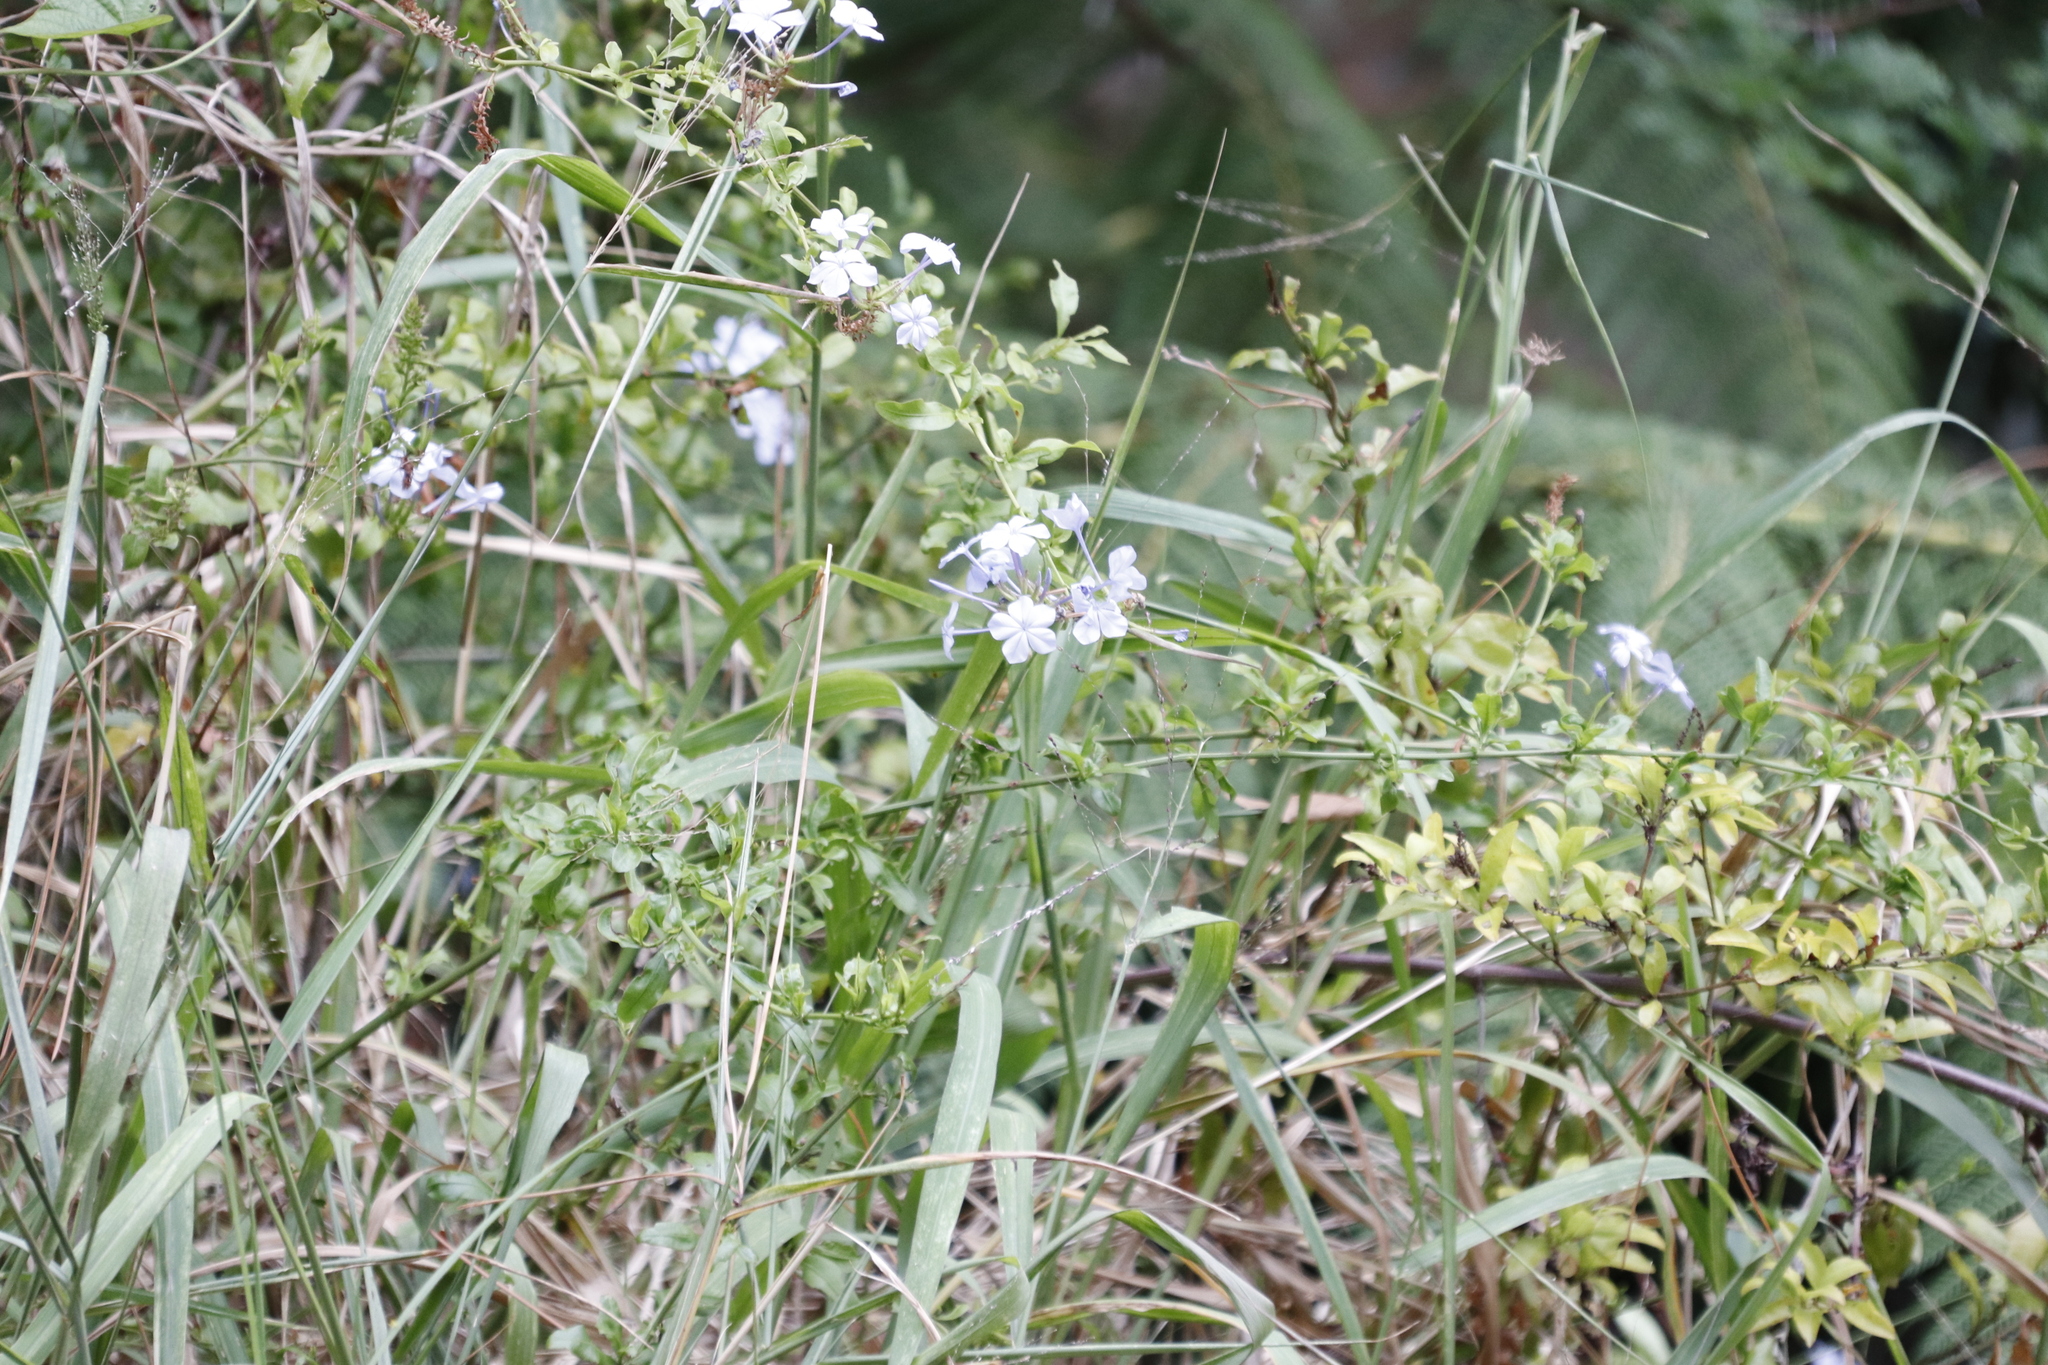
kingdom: Plantae
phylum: Tracheophyta
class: Magnoliopsida
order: Caryophyllales
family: Plumbaginaceae
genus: Plumbago
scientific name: Plumbago auriculata
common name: Cape leadwort
